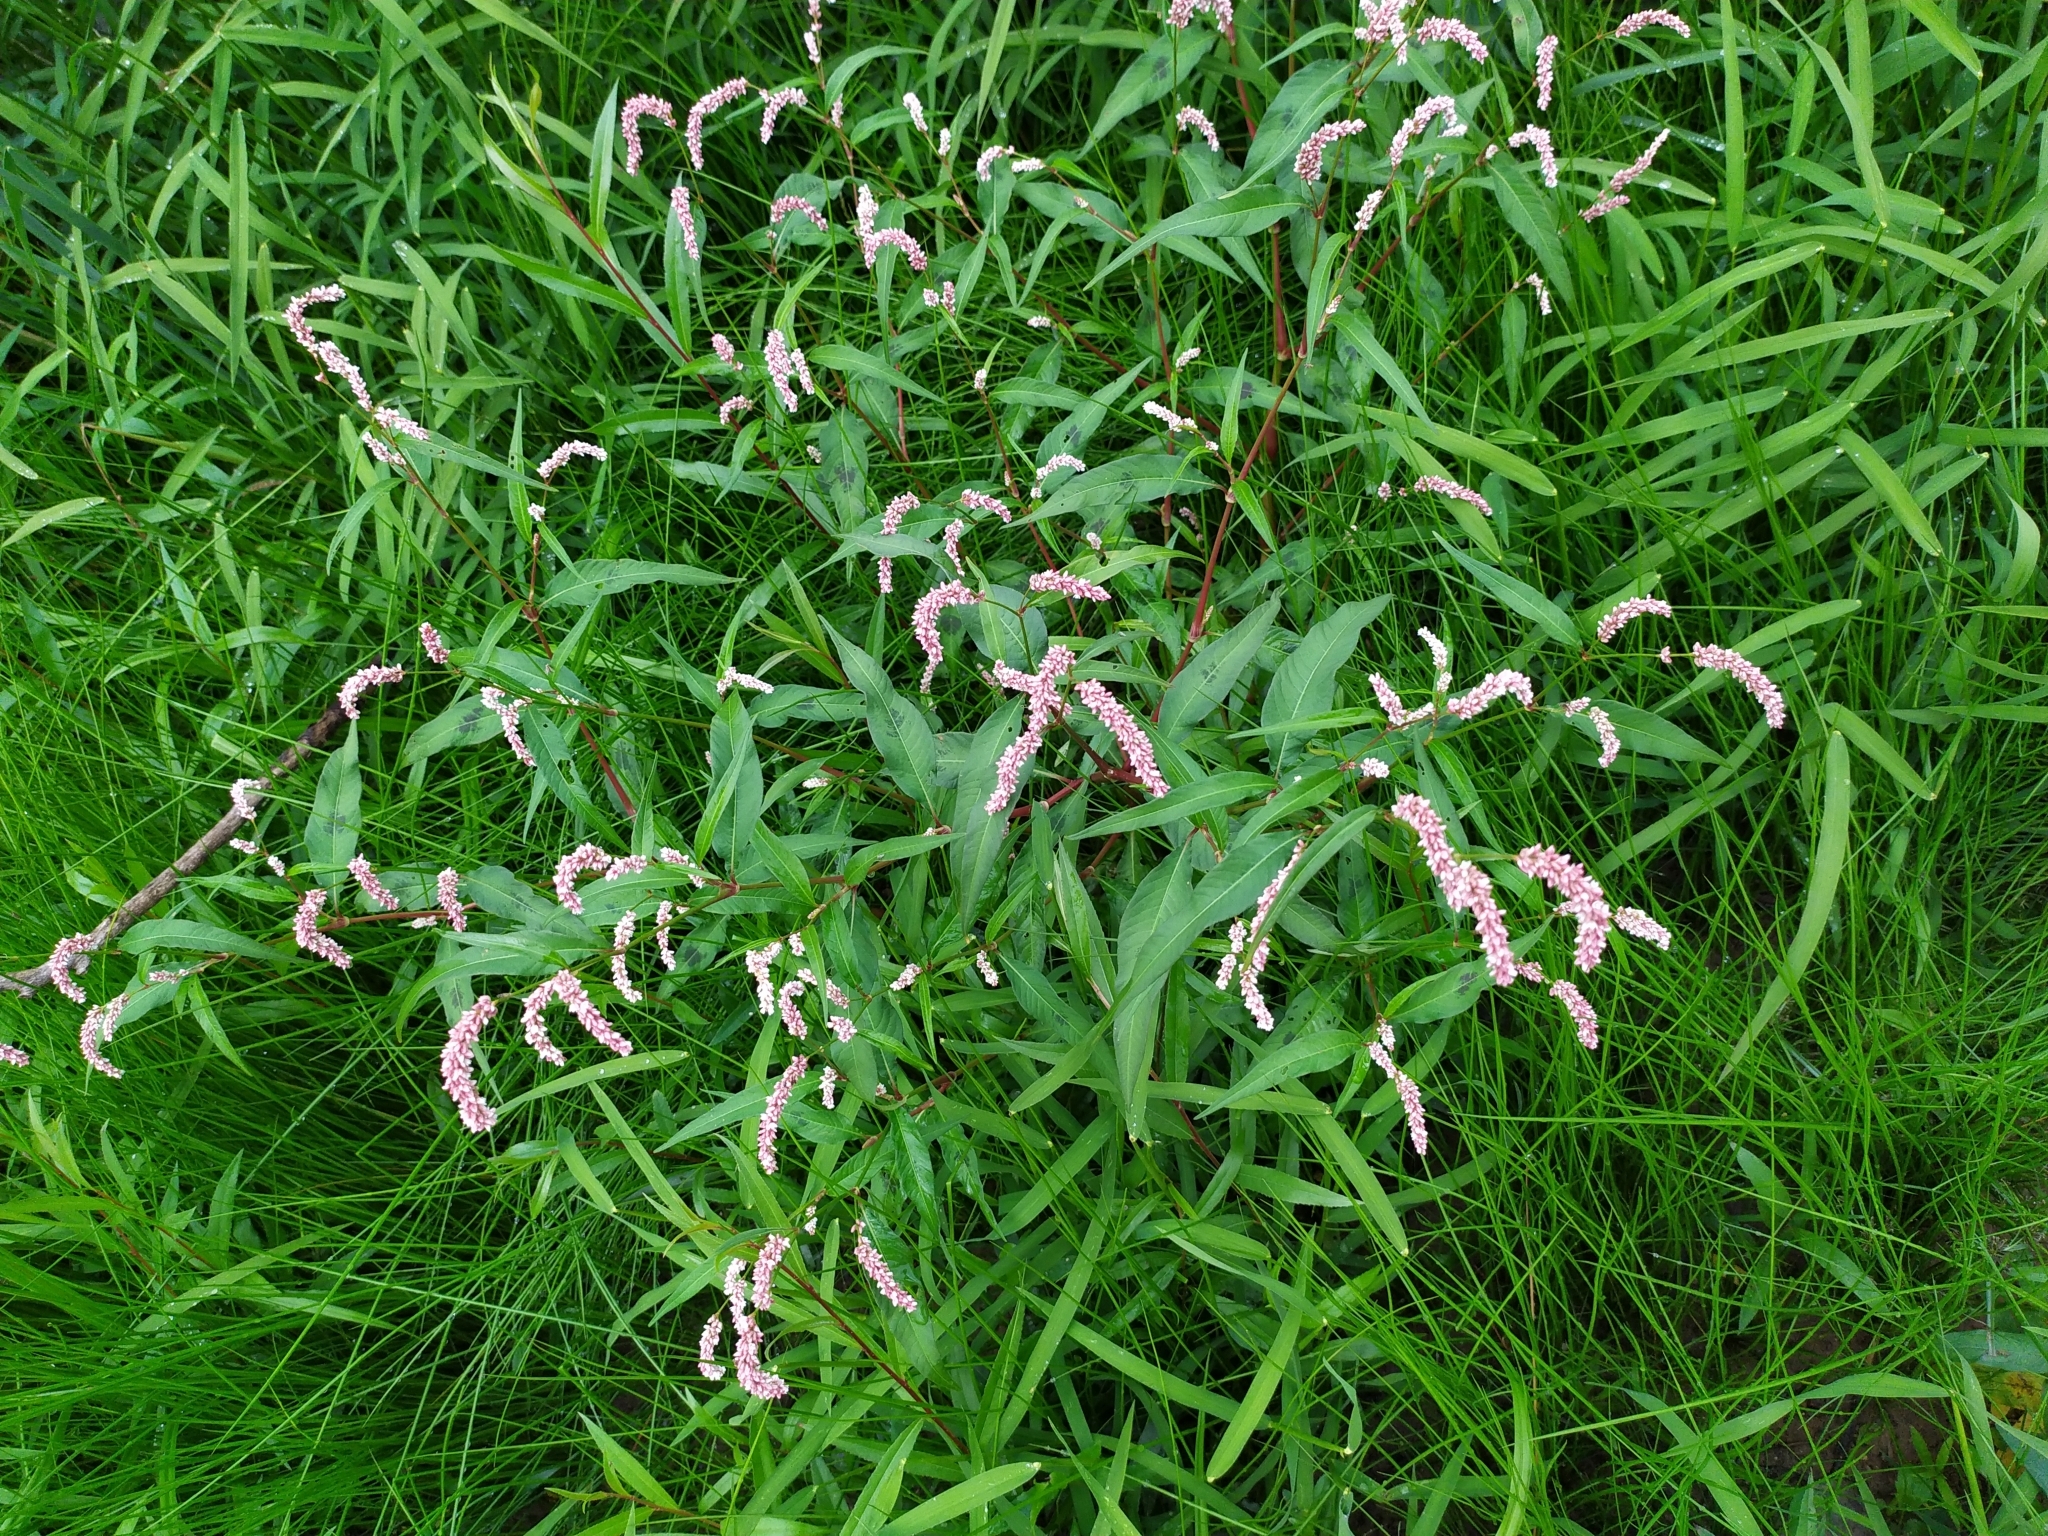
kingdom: Plantae
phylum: Tracheophyta
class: Magnoliopsida
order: Caryophyllales
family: Polygonaceae
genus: Persicaria
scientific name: Persicaria lapathifolia
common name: Curlytop knotweed
